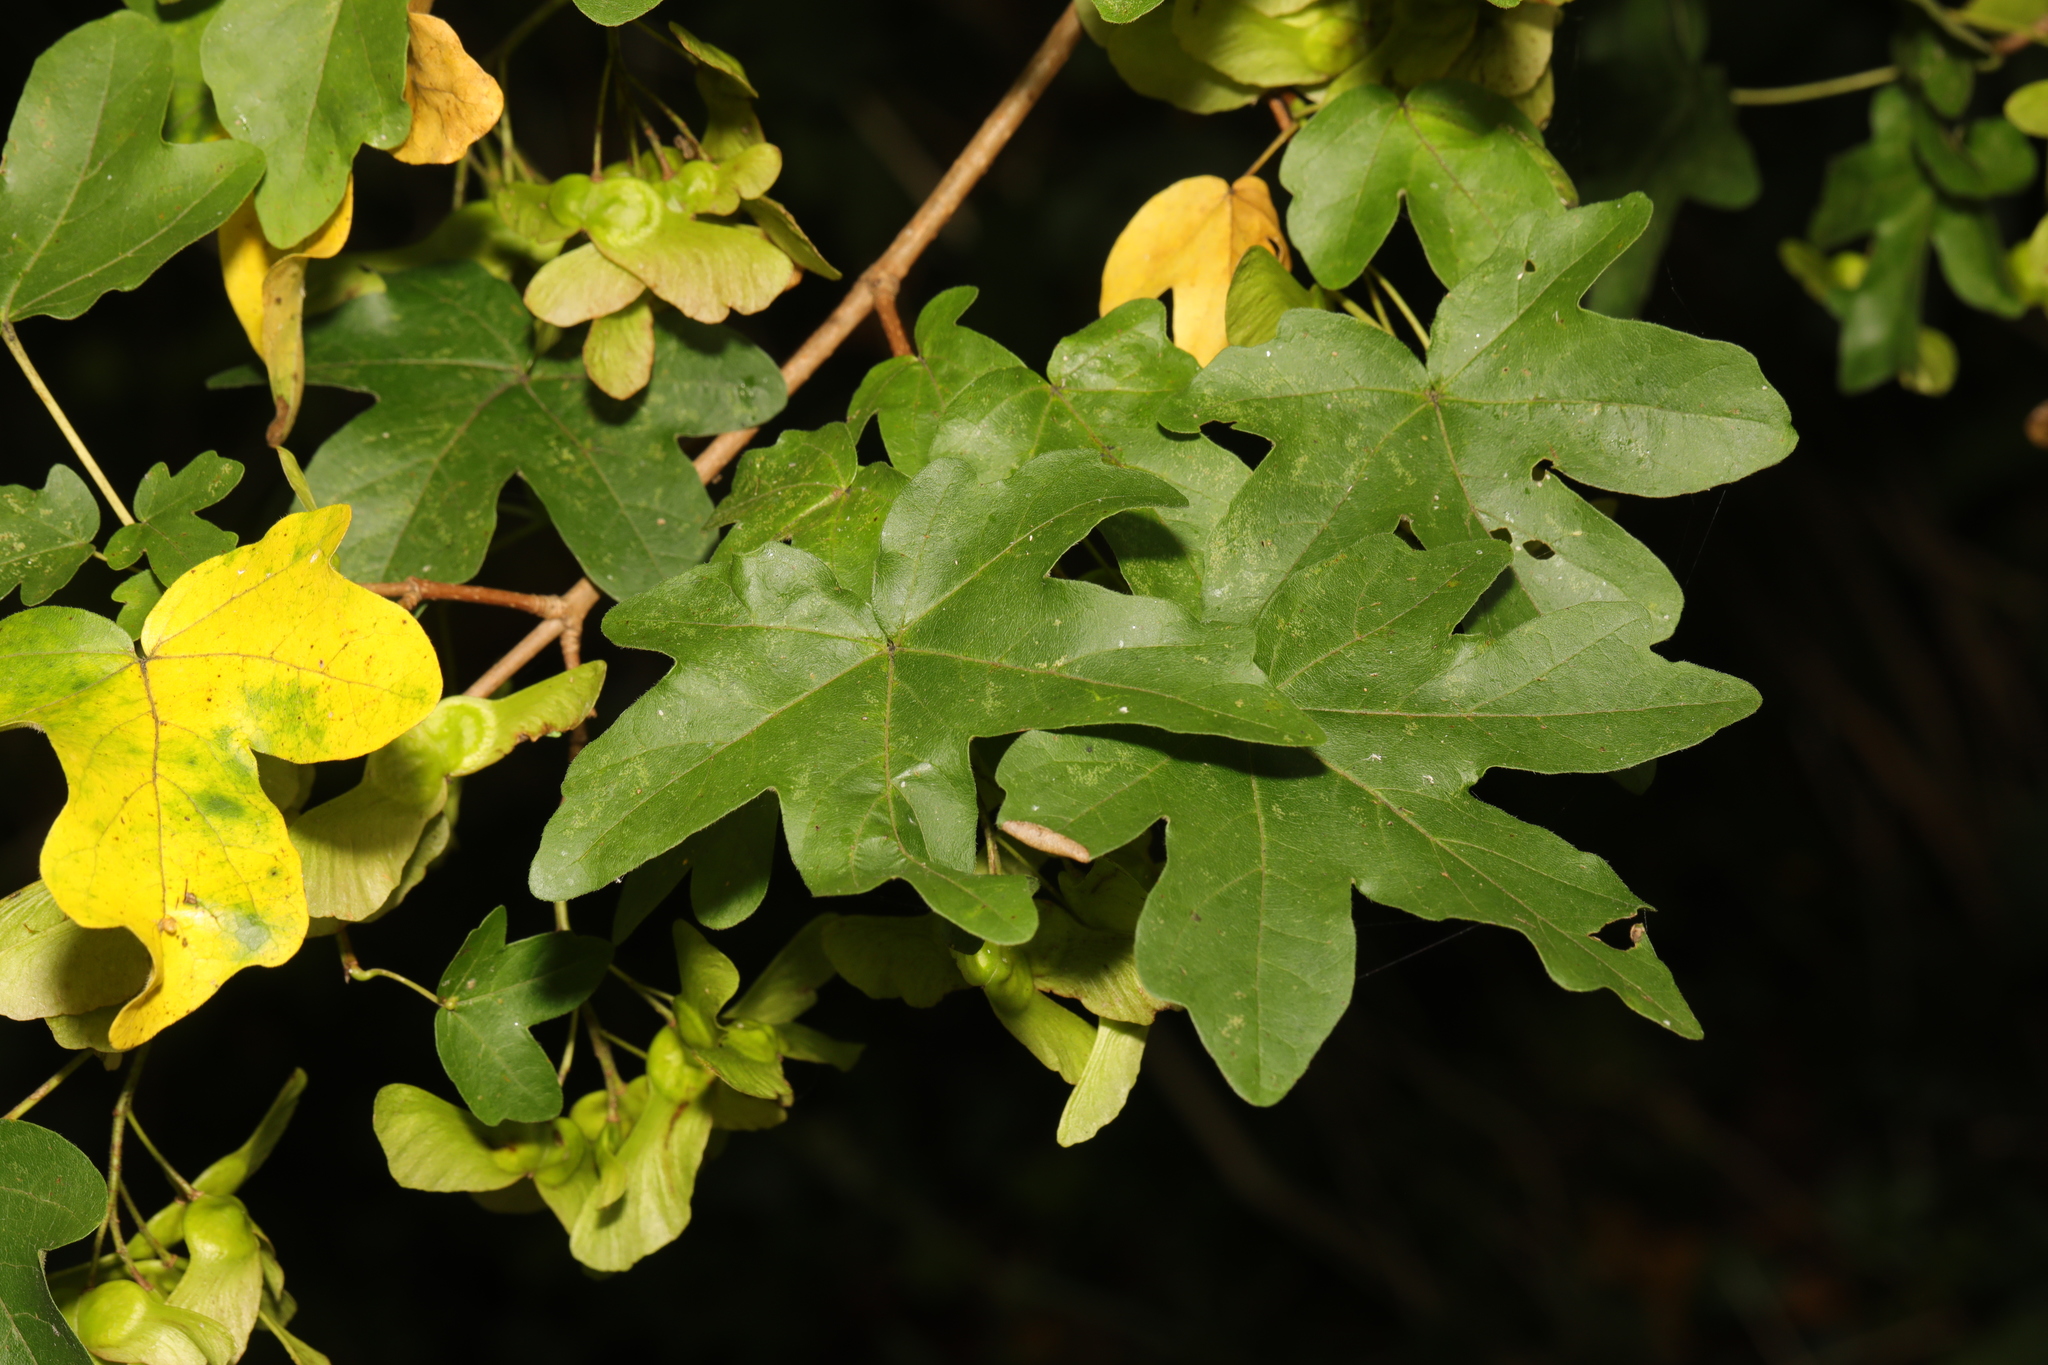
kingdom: Plantae
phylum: Tracheophyta
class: Magnoliopsida
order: Sapindales
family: Sapindaceae
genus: Acer
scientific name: Acer campestre
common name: Field maple
